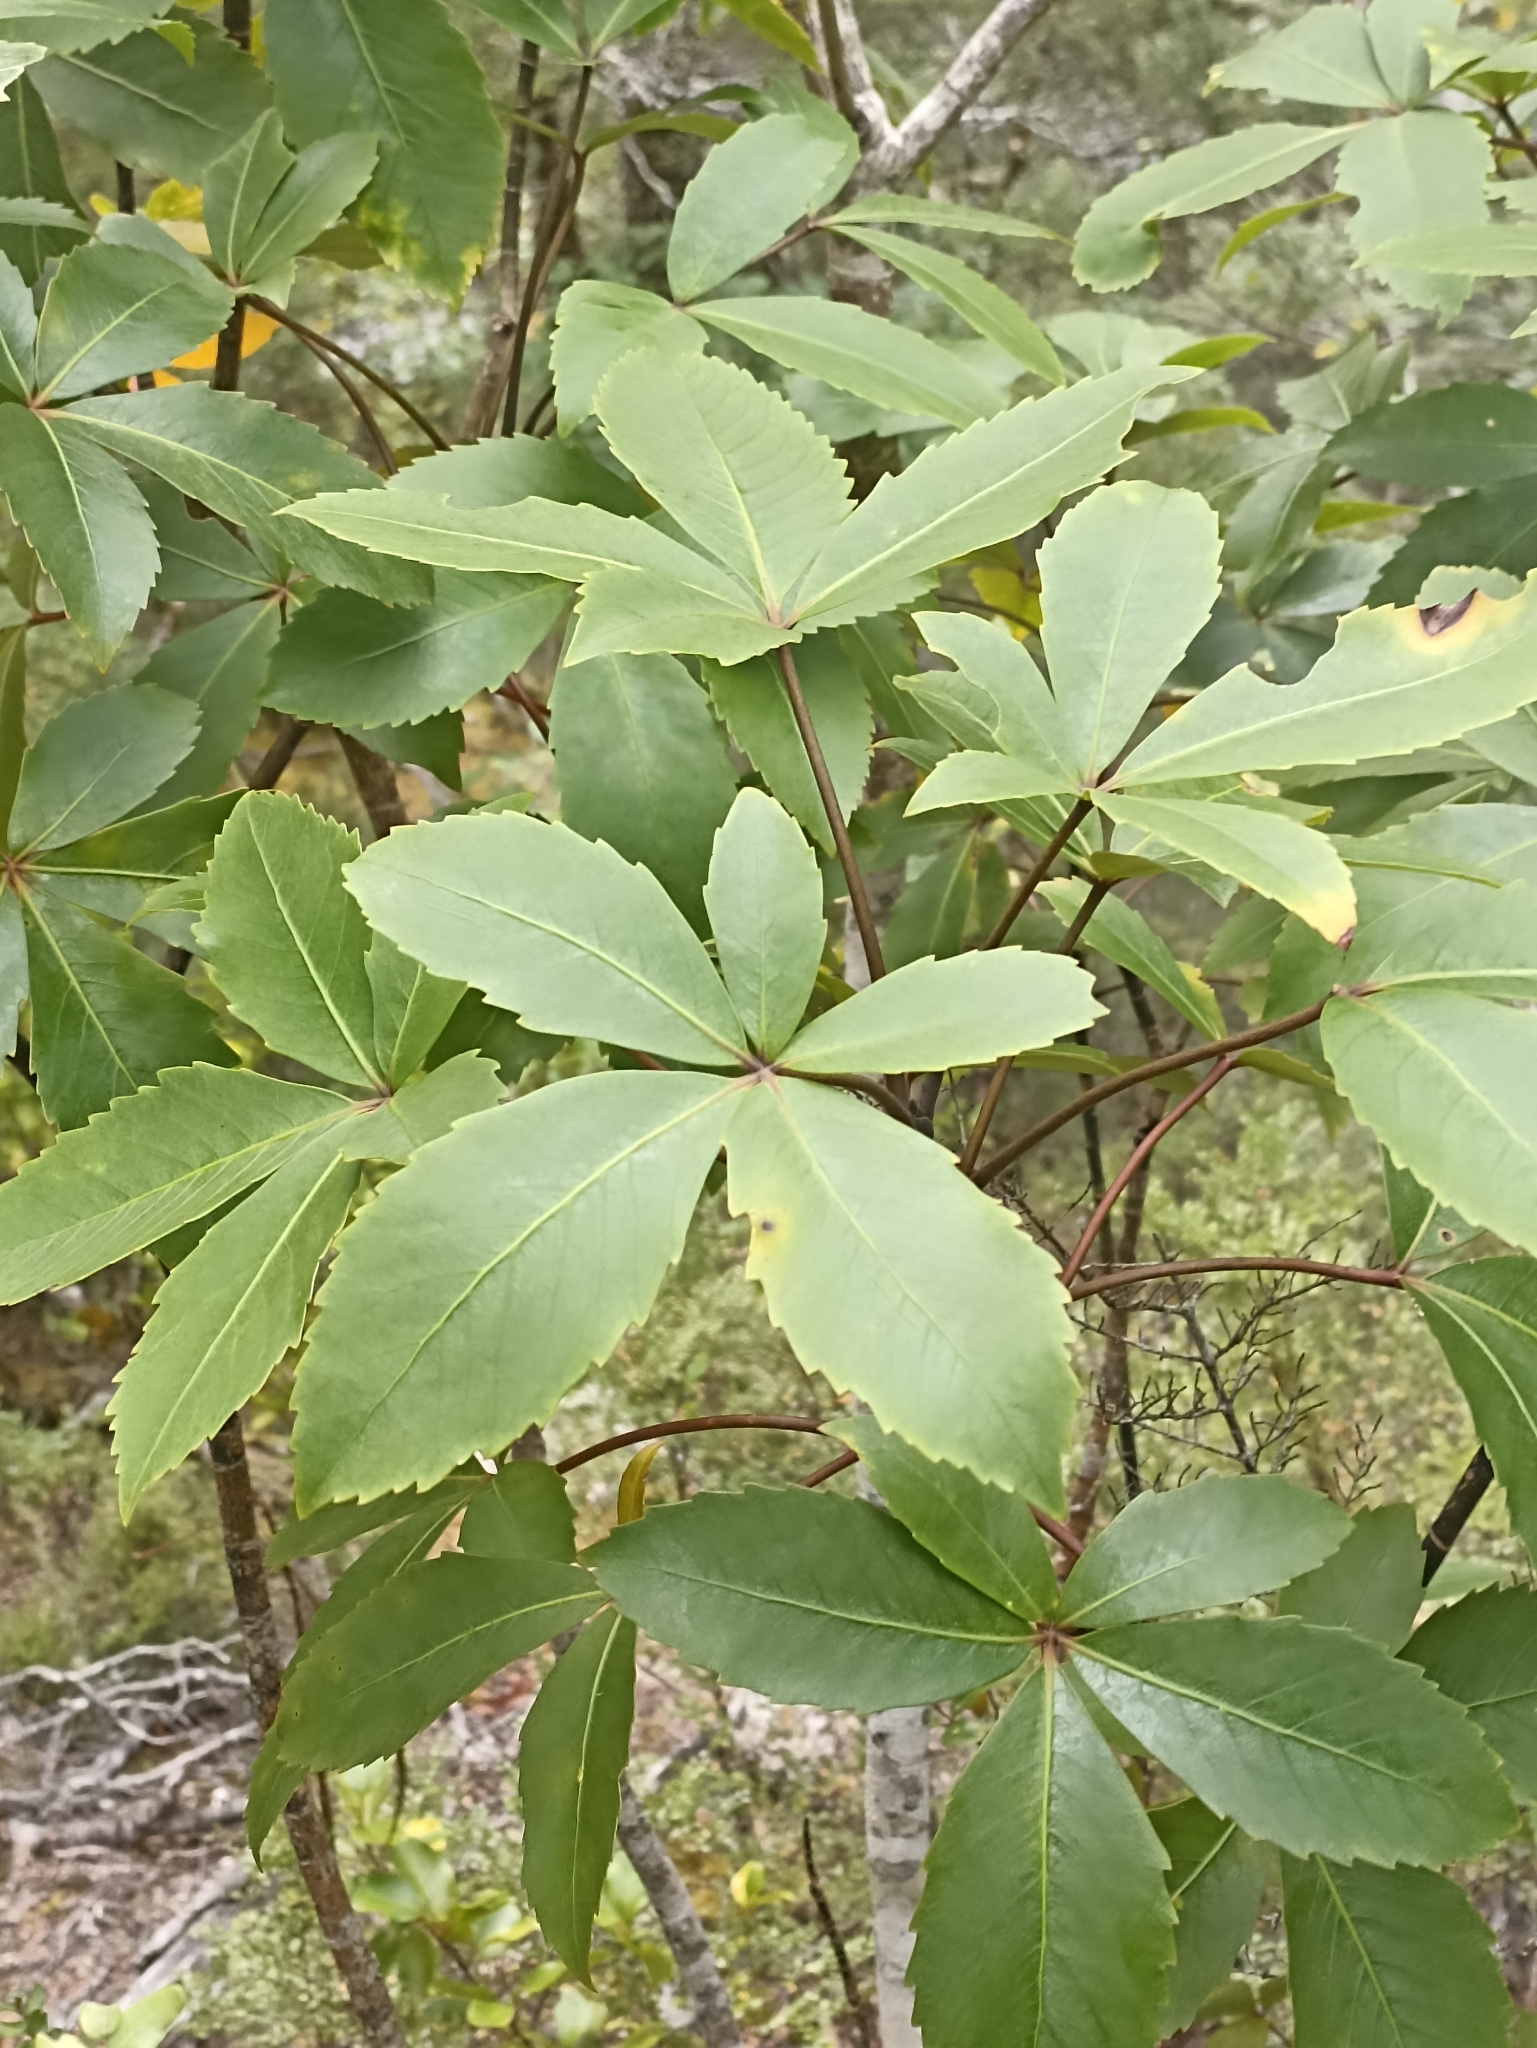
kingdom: Plantae
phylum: Tracheophyta
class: Magnoliopsida
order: Apiales
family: Araliaceae
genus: Neopanax
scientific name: Neopanax colensoi
